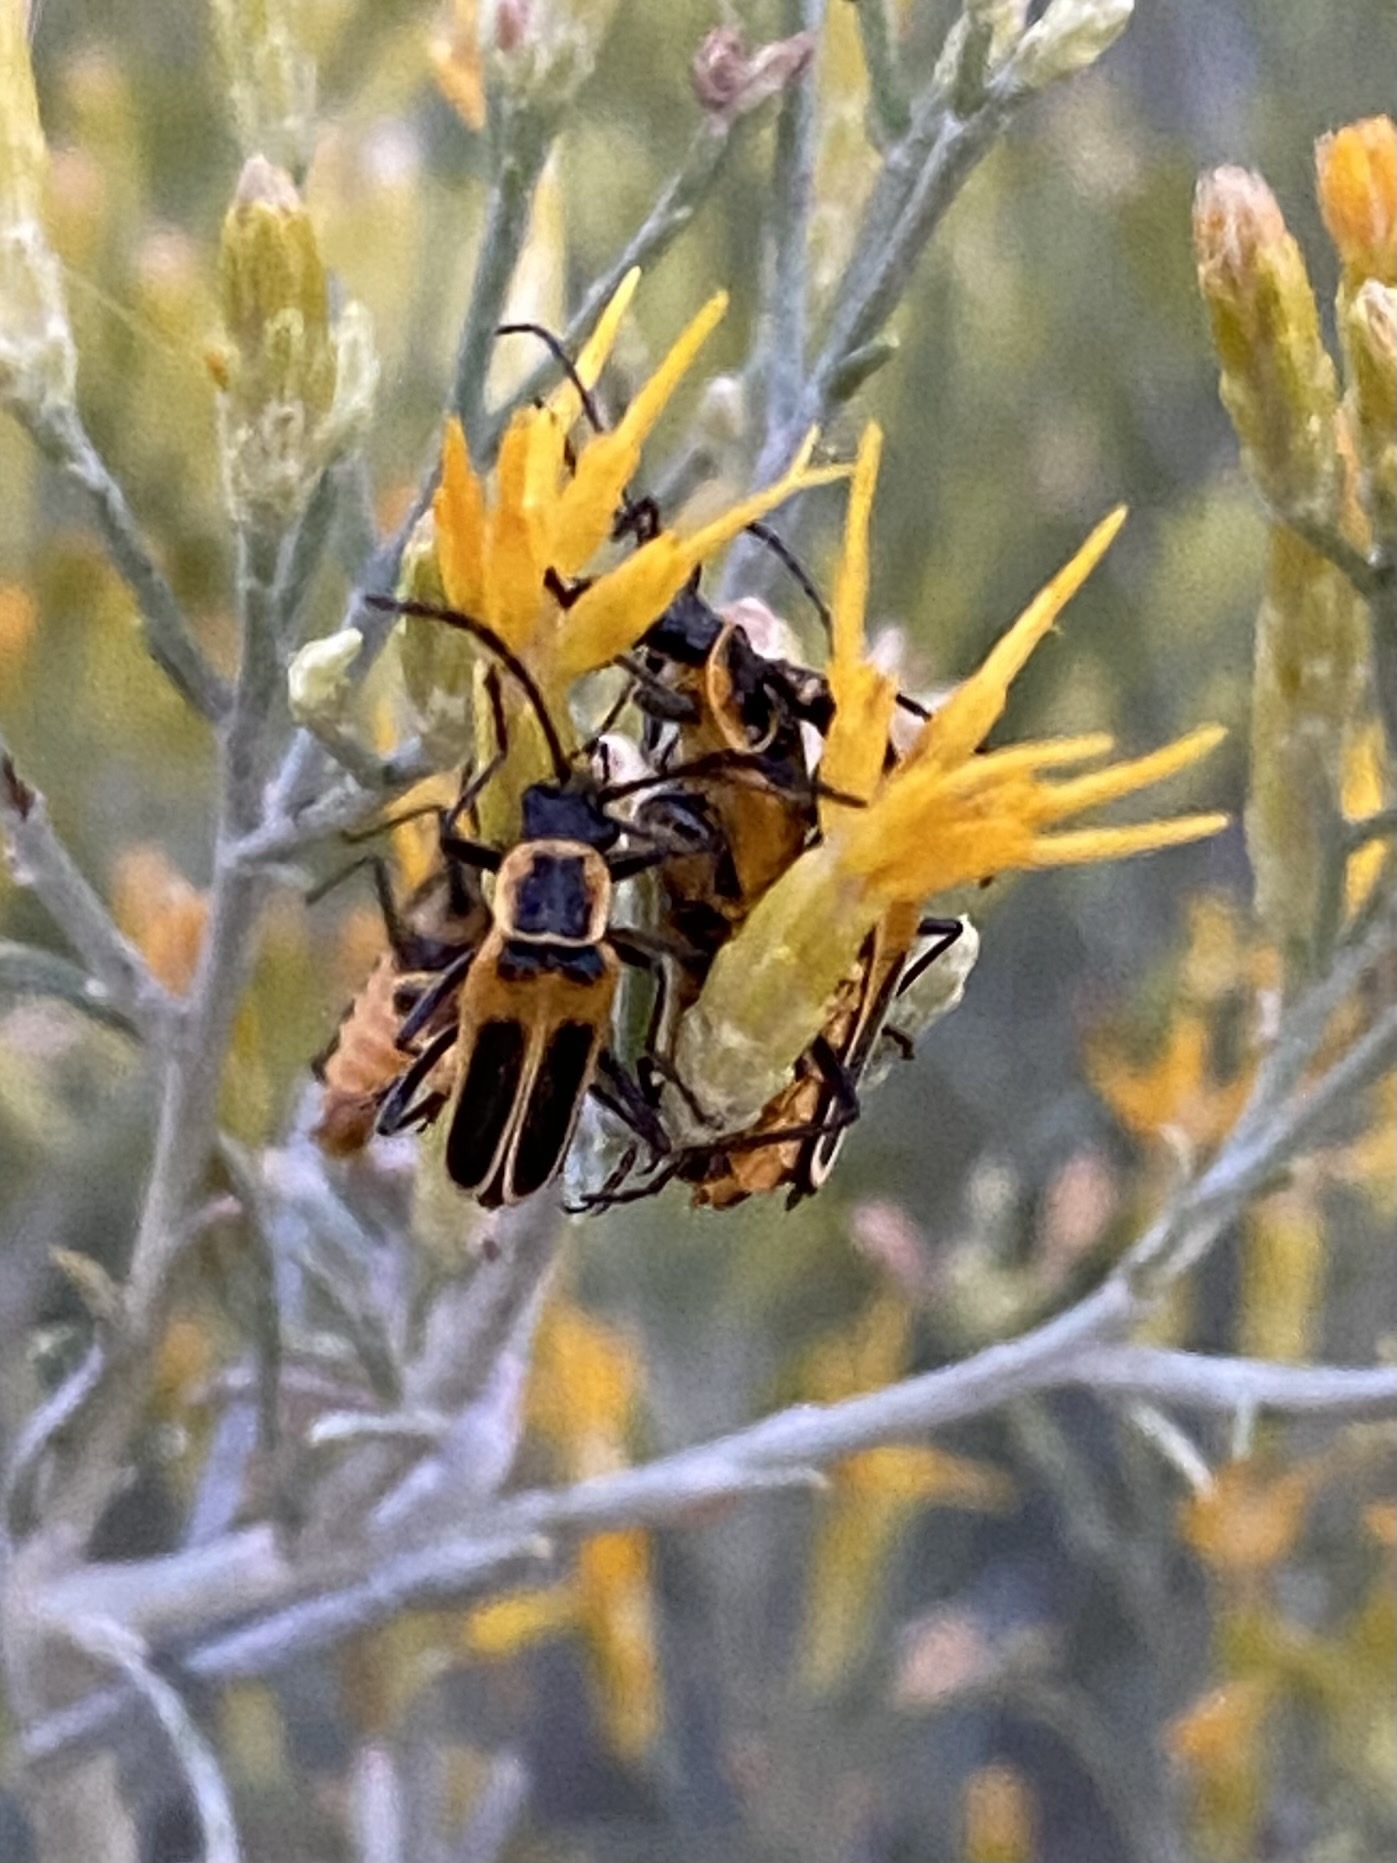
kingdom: Animalia
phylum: Arthropoda
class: Insecta
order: Coleoptera
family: Cantharidae
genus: Chauliognathus
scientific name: Chauliognathus lewisi
